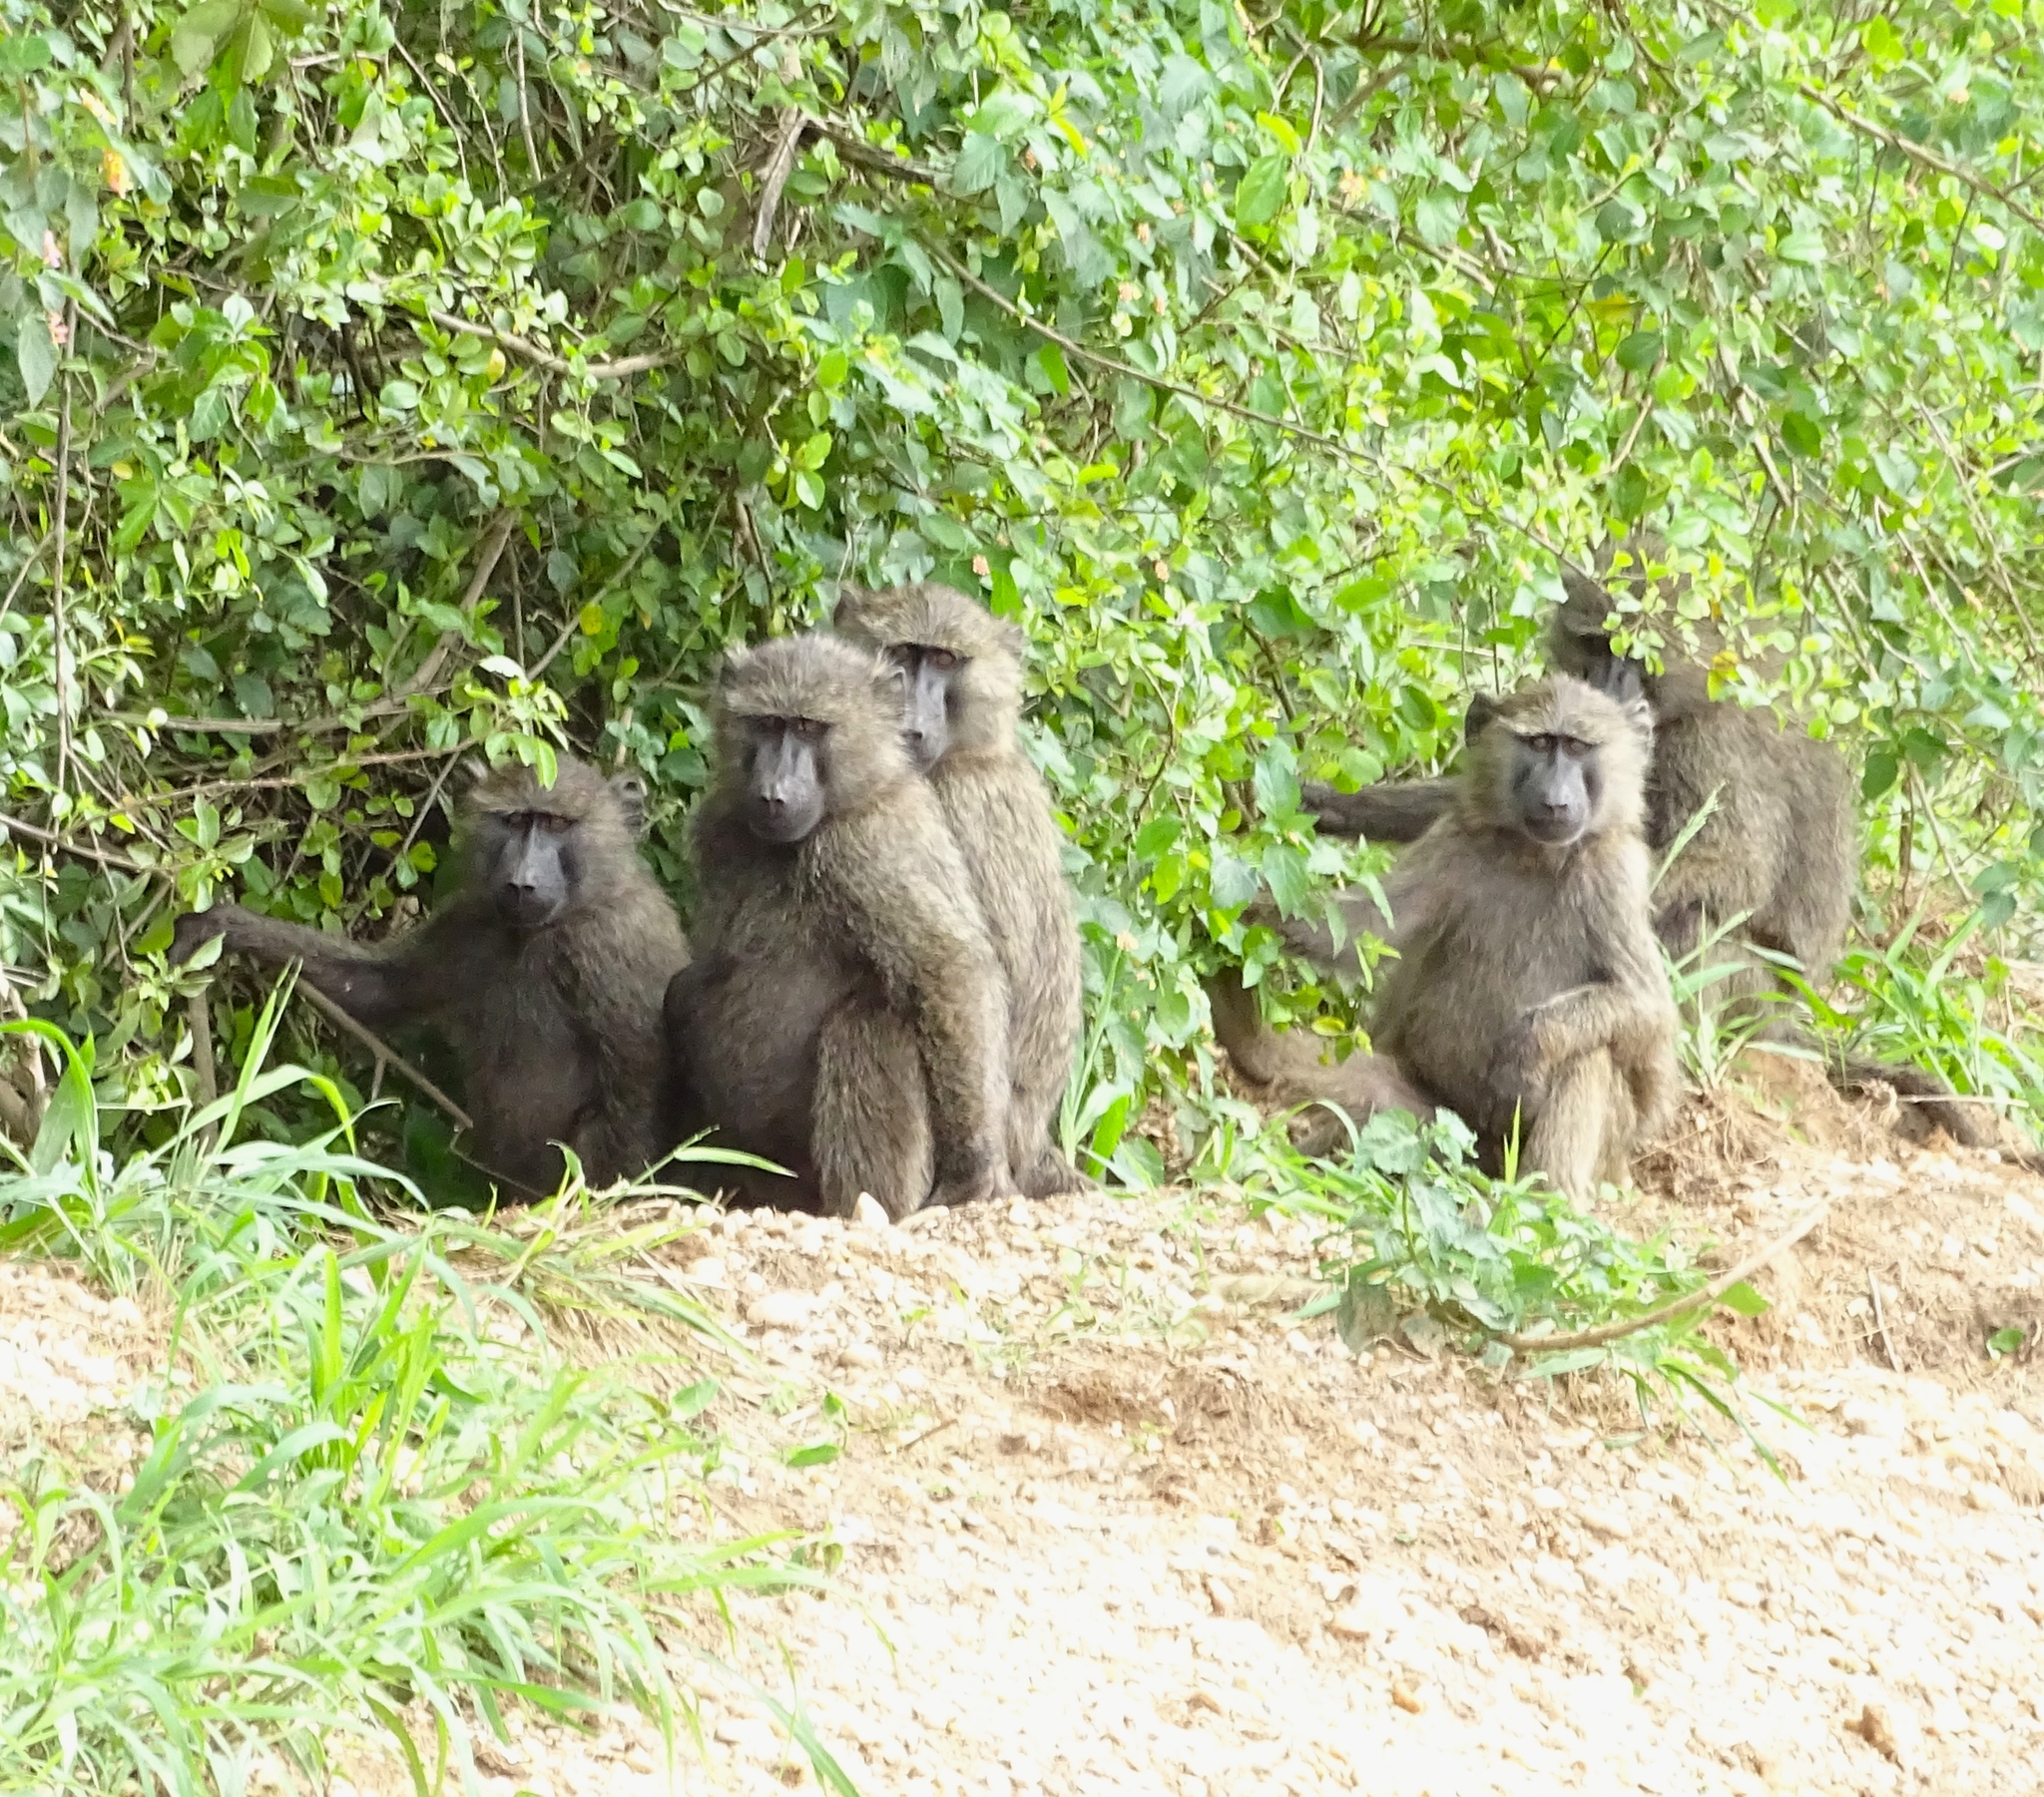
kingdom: Animalia
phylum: Chordata
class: Mammalia
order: Primates
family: Cercopithecidae
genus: Papio
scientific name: Papio anubis
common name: Olive baboon
